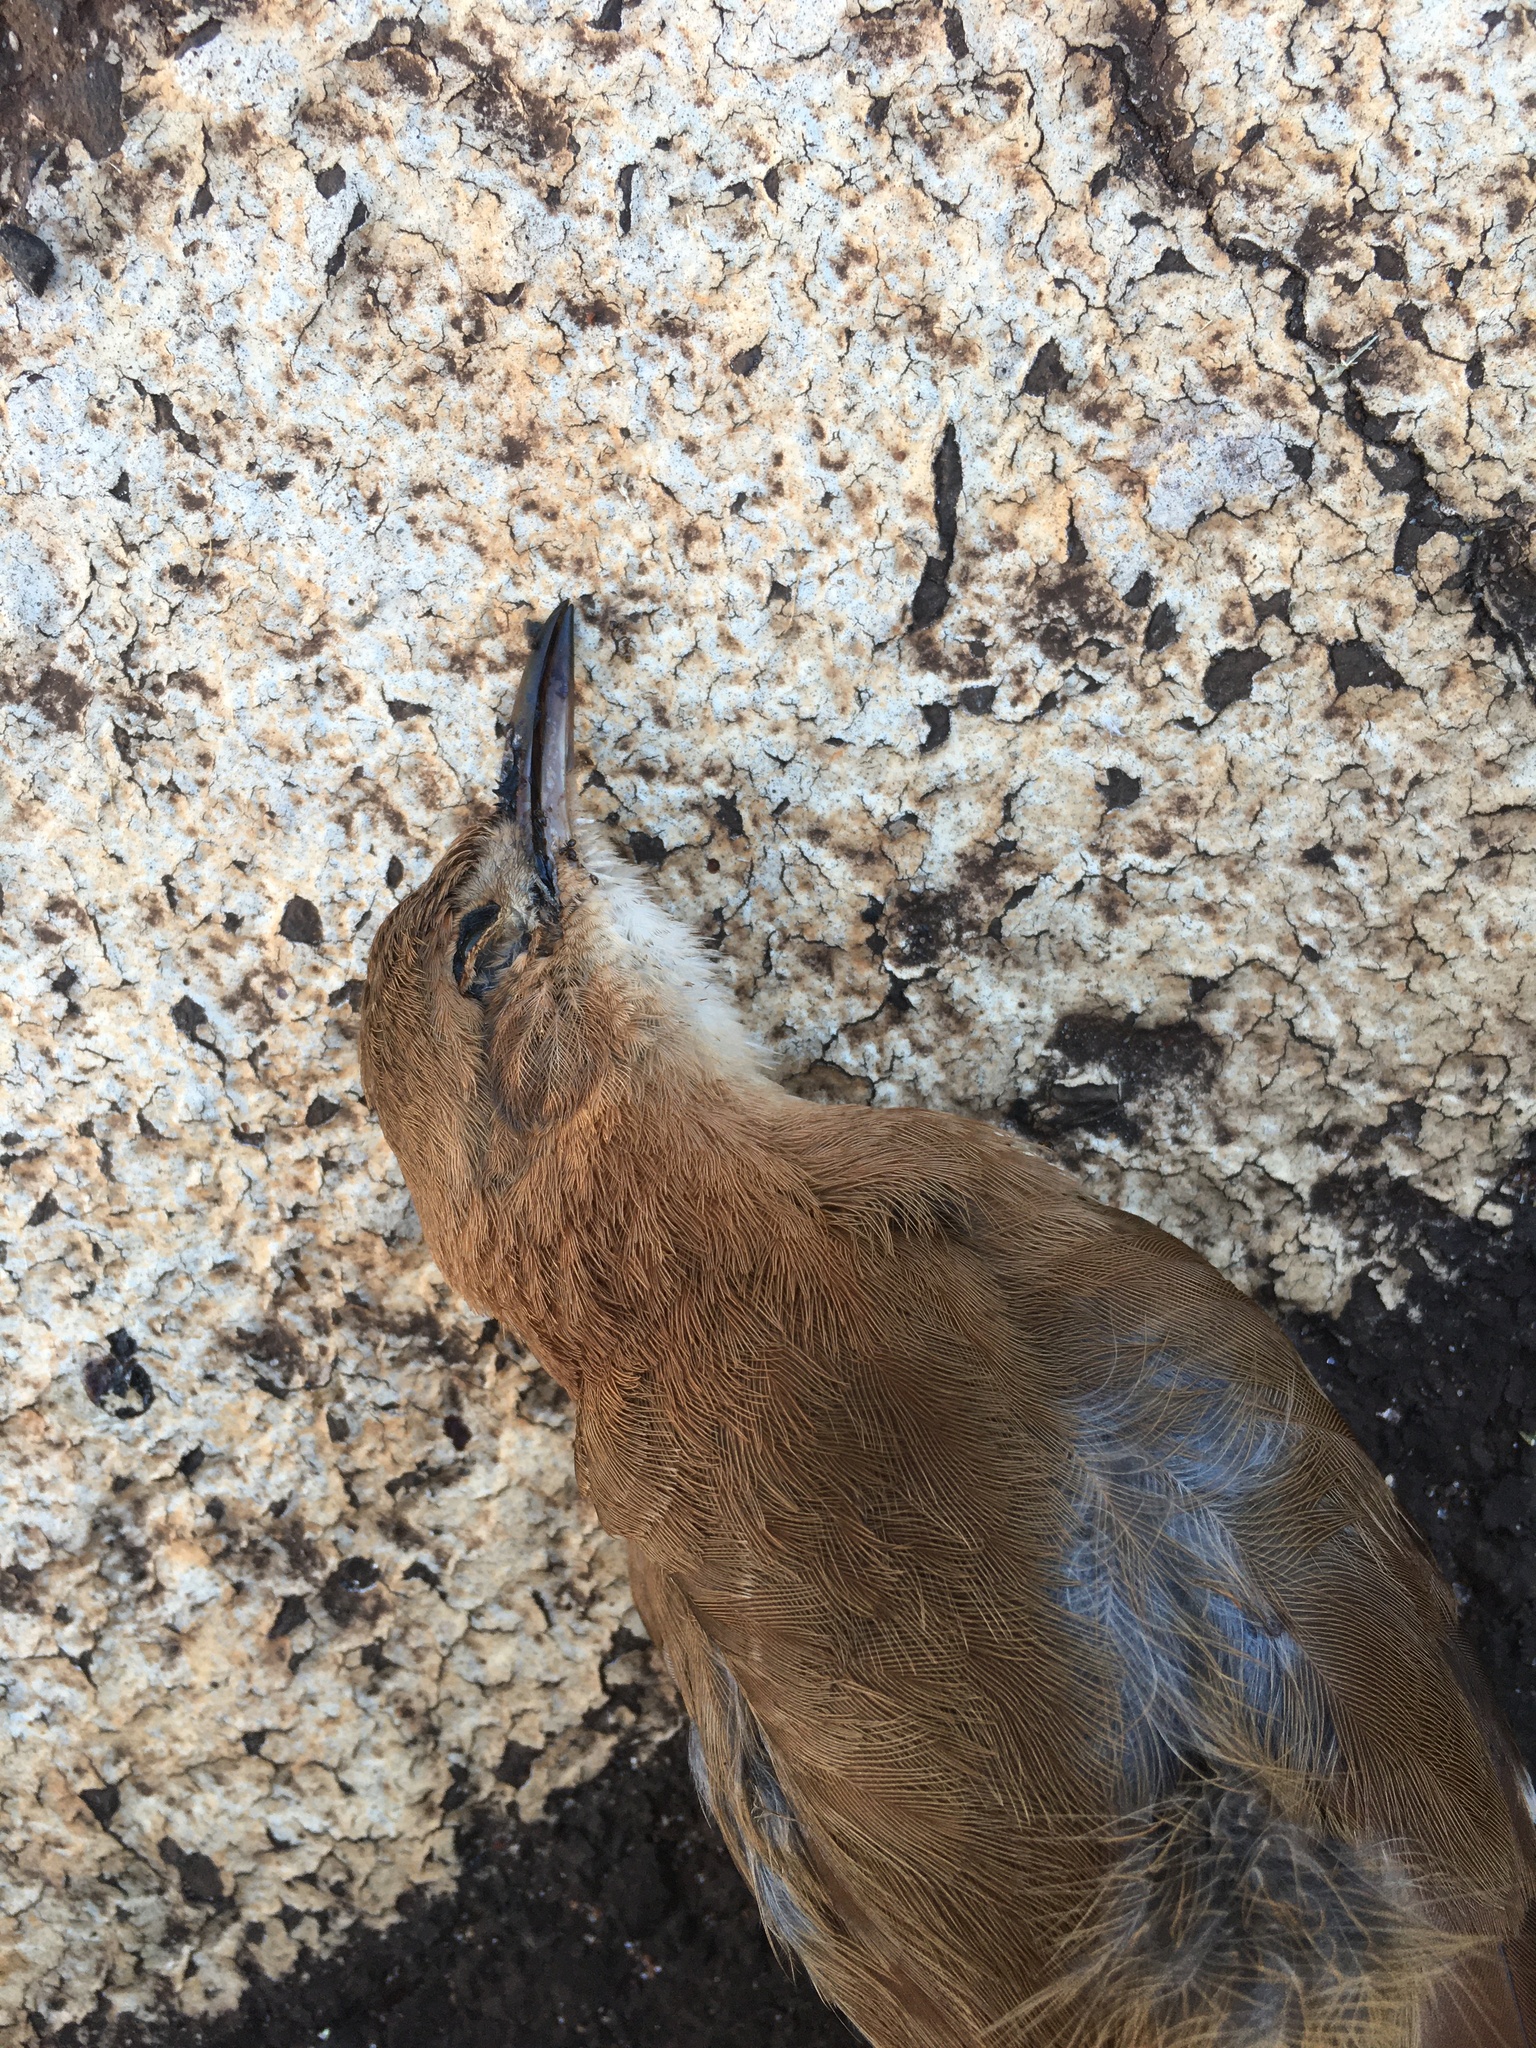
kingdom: Animalia
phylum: Chordata
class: Aves
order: Passeriformes
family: Furnariidae
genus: Furnarius
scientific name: Furnarius rufus
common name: Rufous hornero
